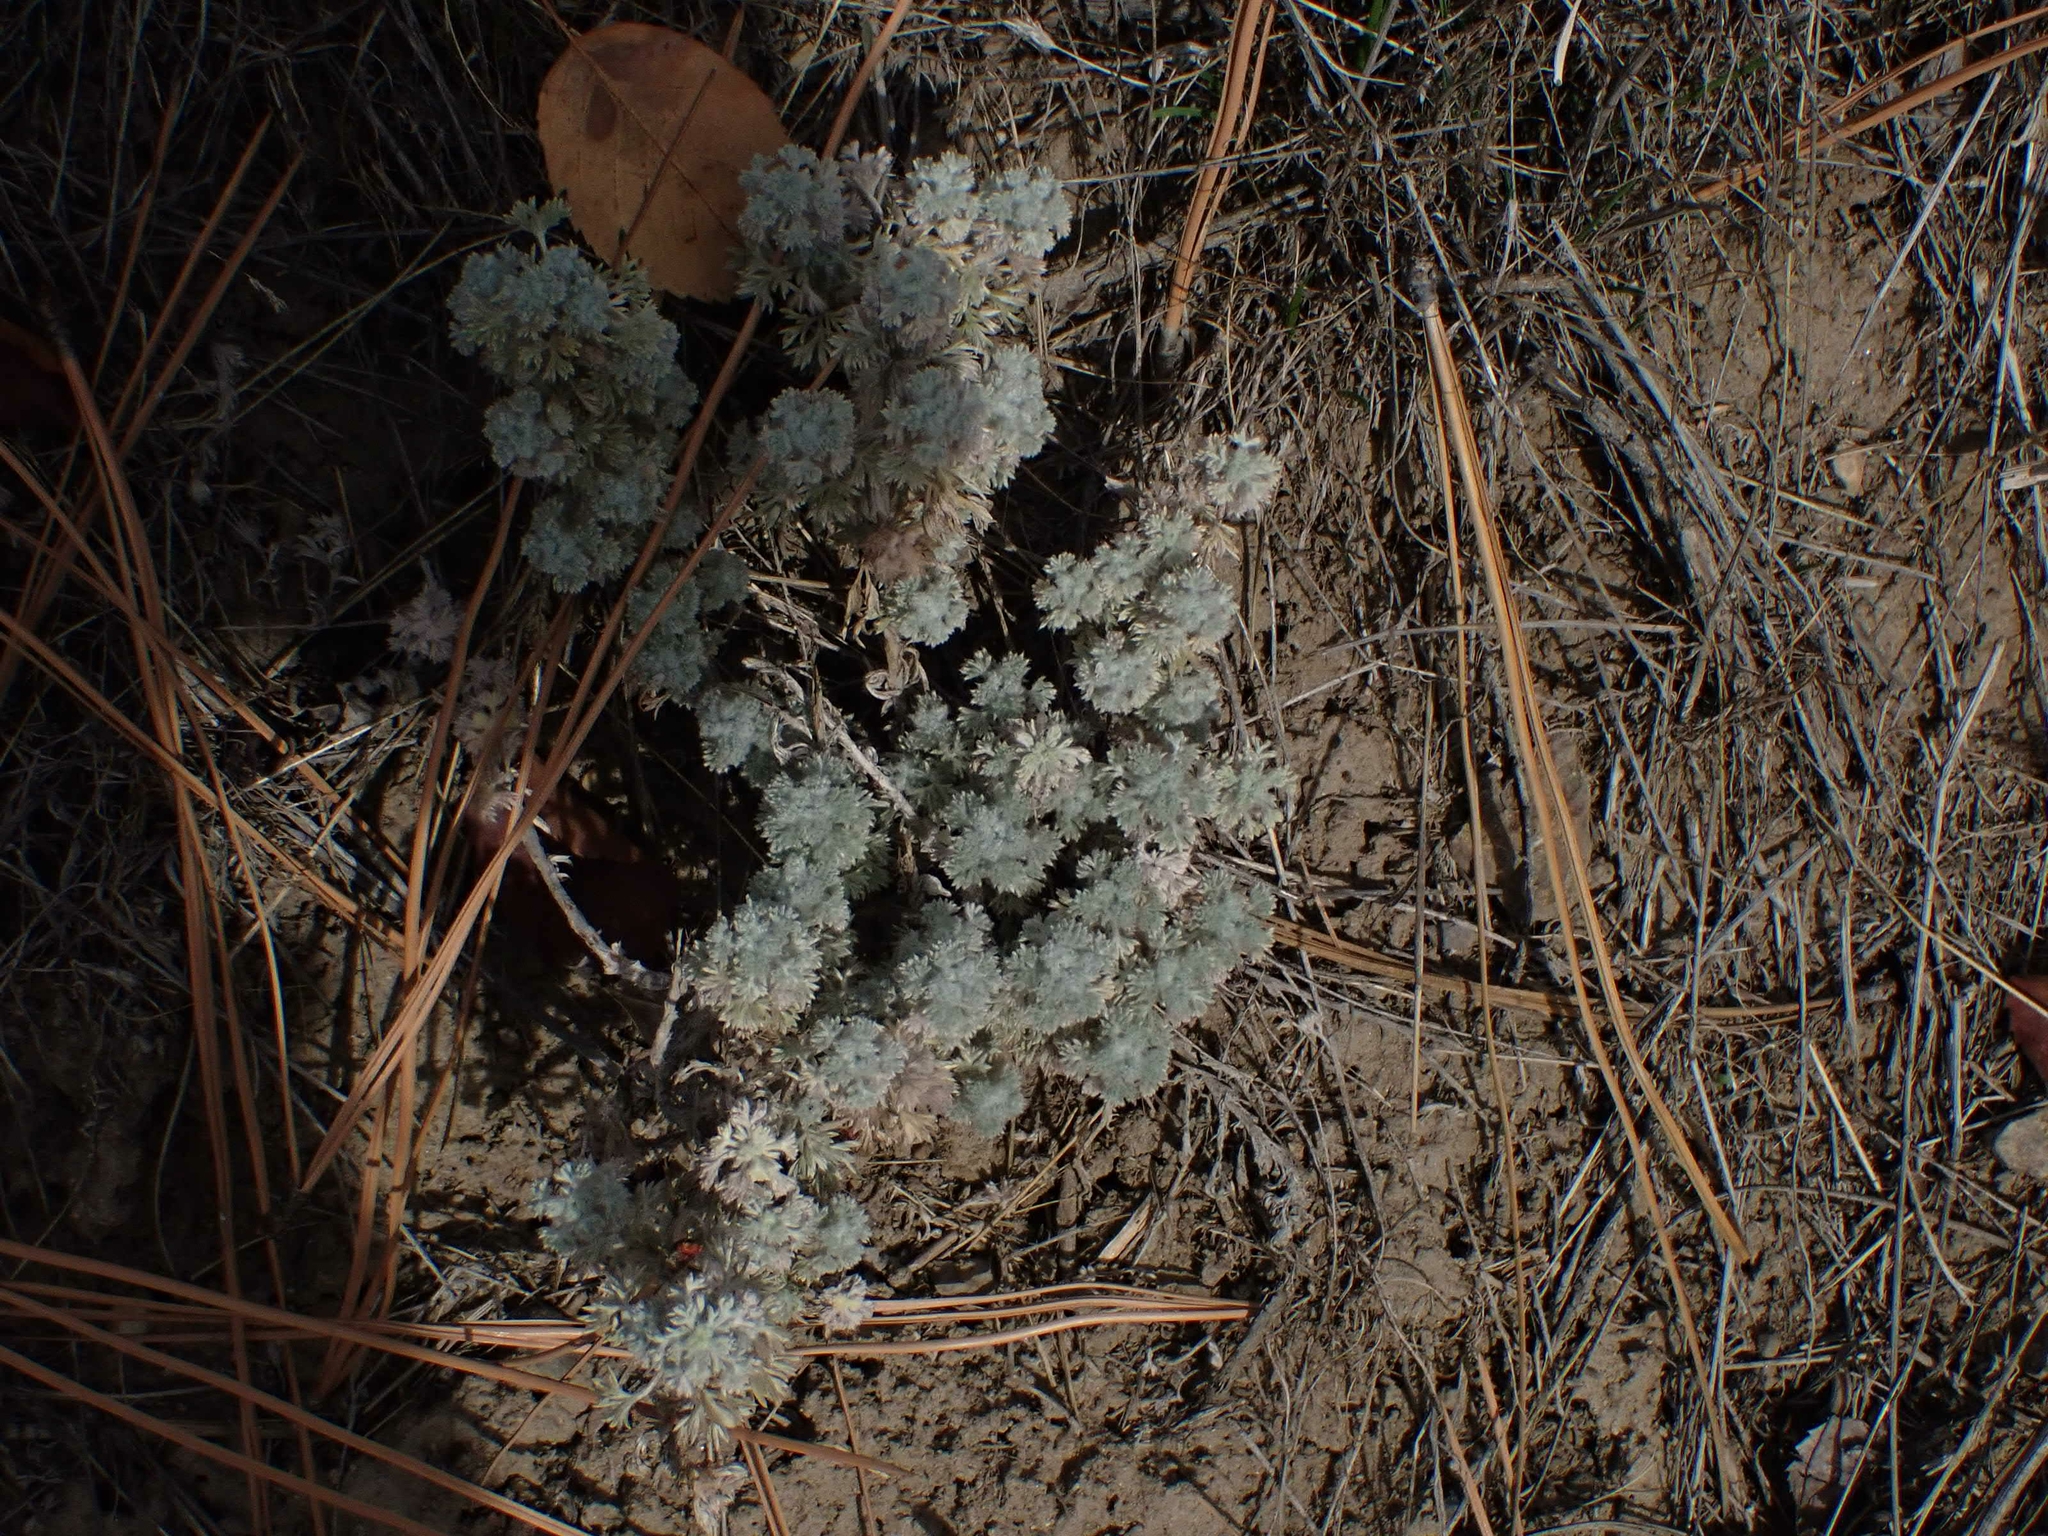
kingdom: Plantae
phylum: Tracheophyta
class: Magnoliopsida
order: Asterales
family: Asteraceae
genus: Artemisia
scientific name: Artemisia frigida
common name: Prairie sagewort
